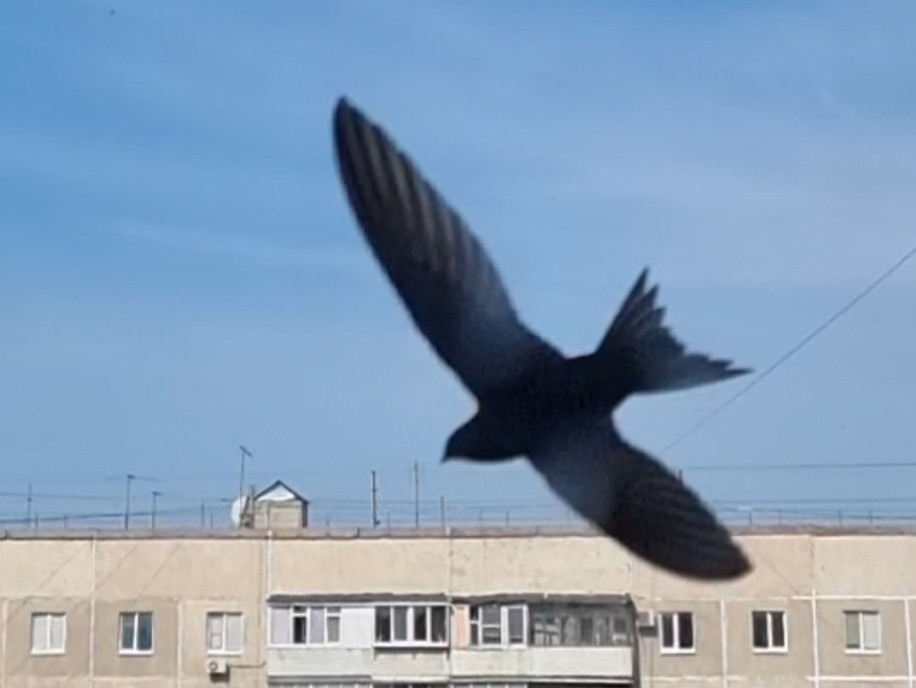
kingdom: Animalia
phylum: Chordata
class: Aves
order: Apodiformes
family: Apodidae
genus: Apus
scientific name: Apus apus
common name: Common swift
